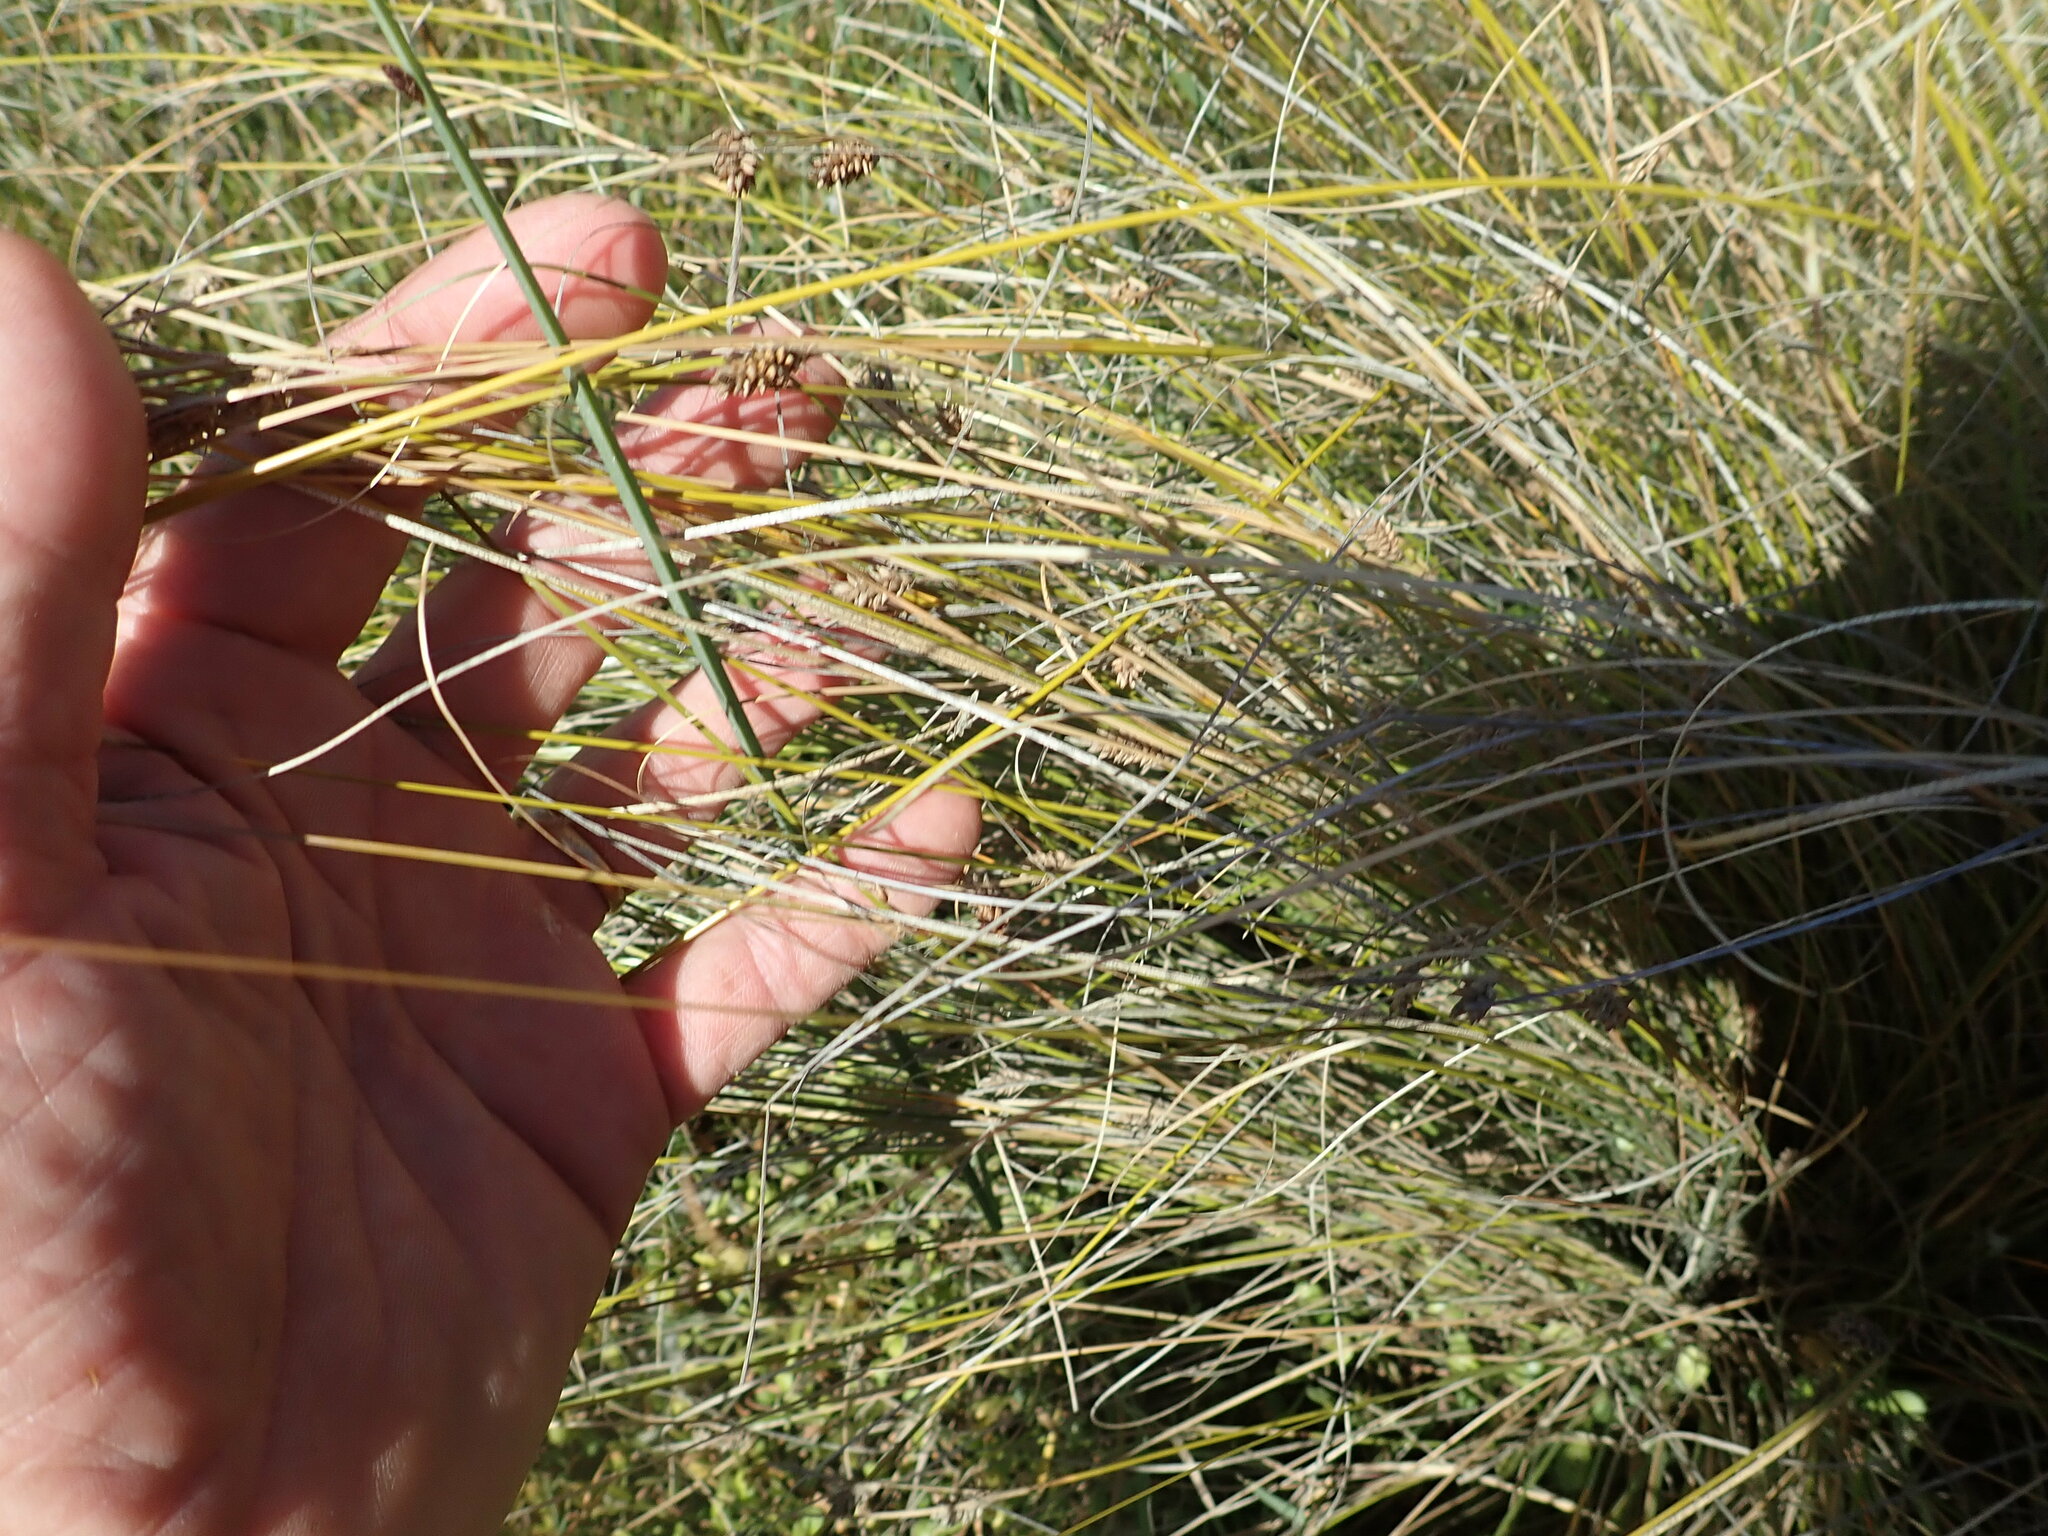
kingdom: Plantae
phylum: Tracheophyta
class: Liliopsida
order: Poales
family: Cyperaceae
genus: Carex
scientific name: Carex litorosa
